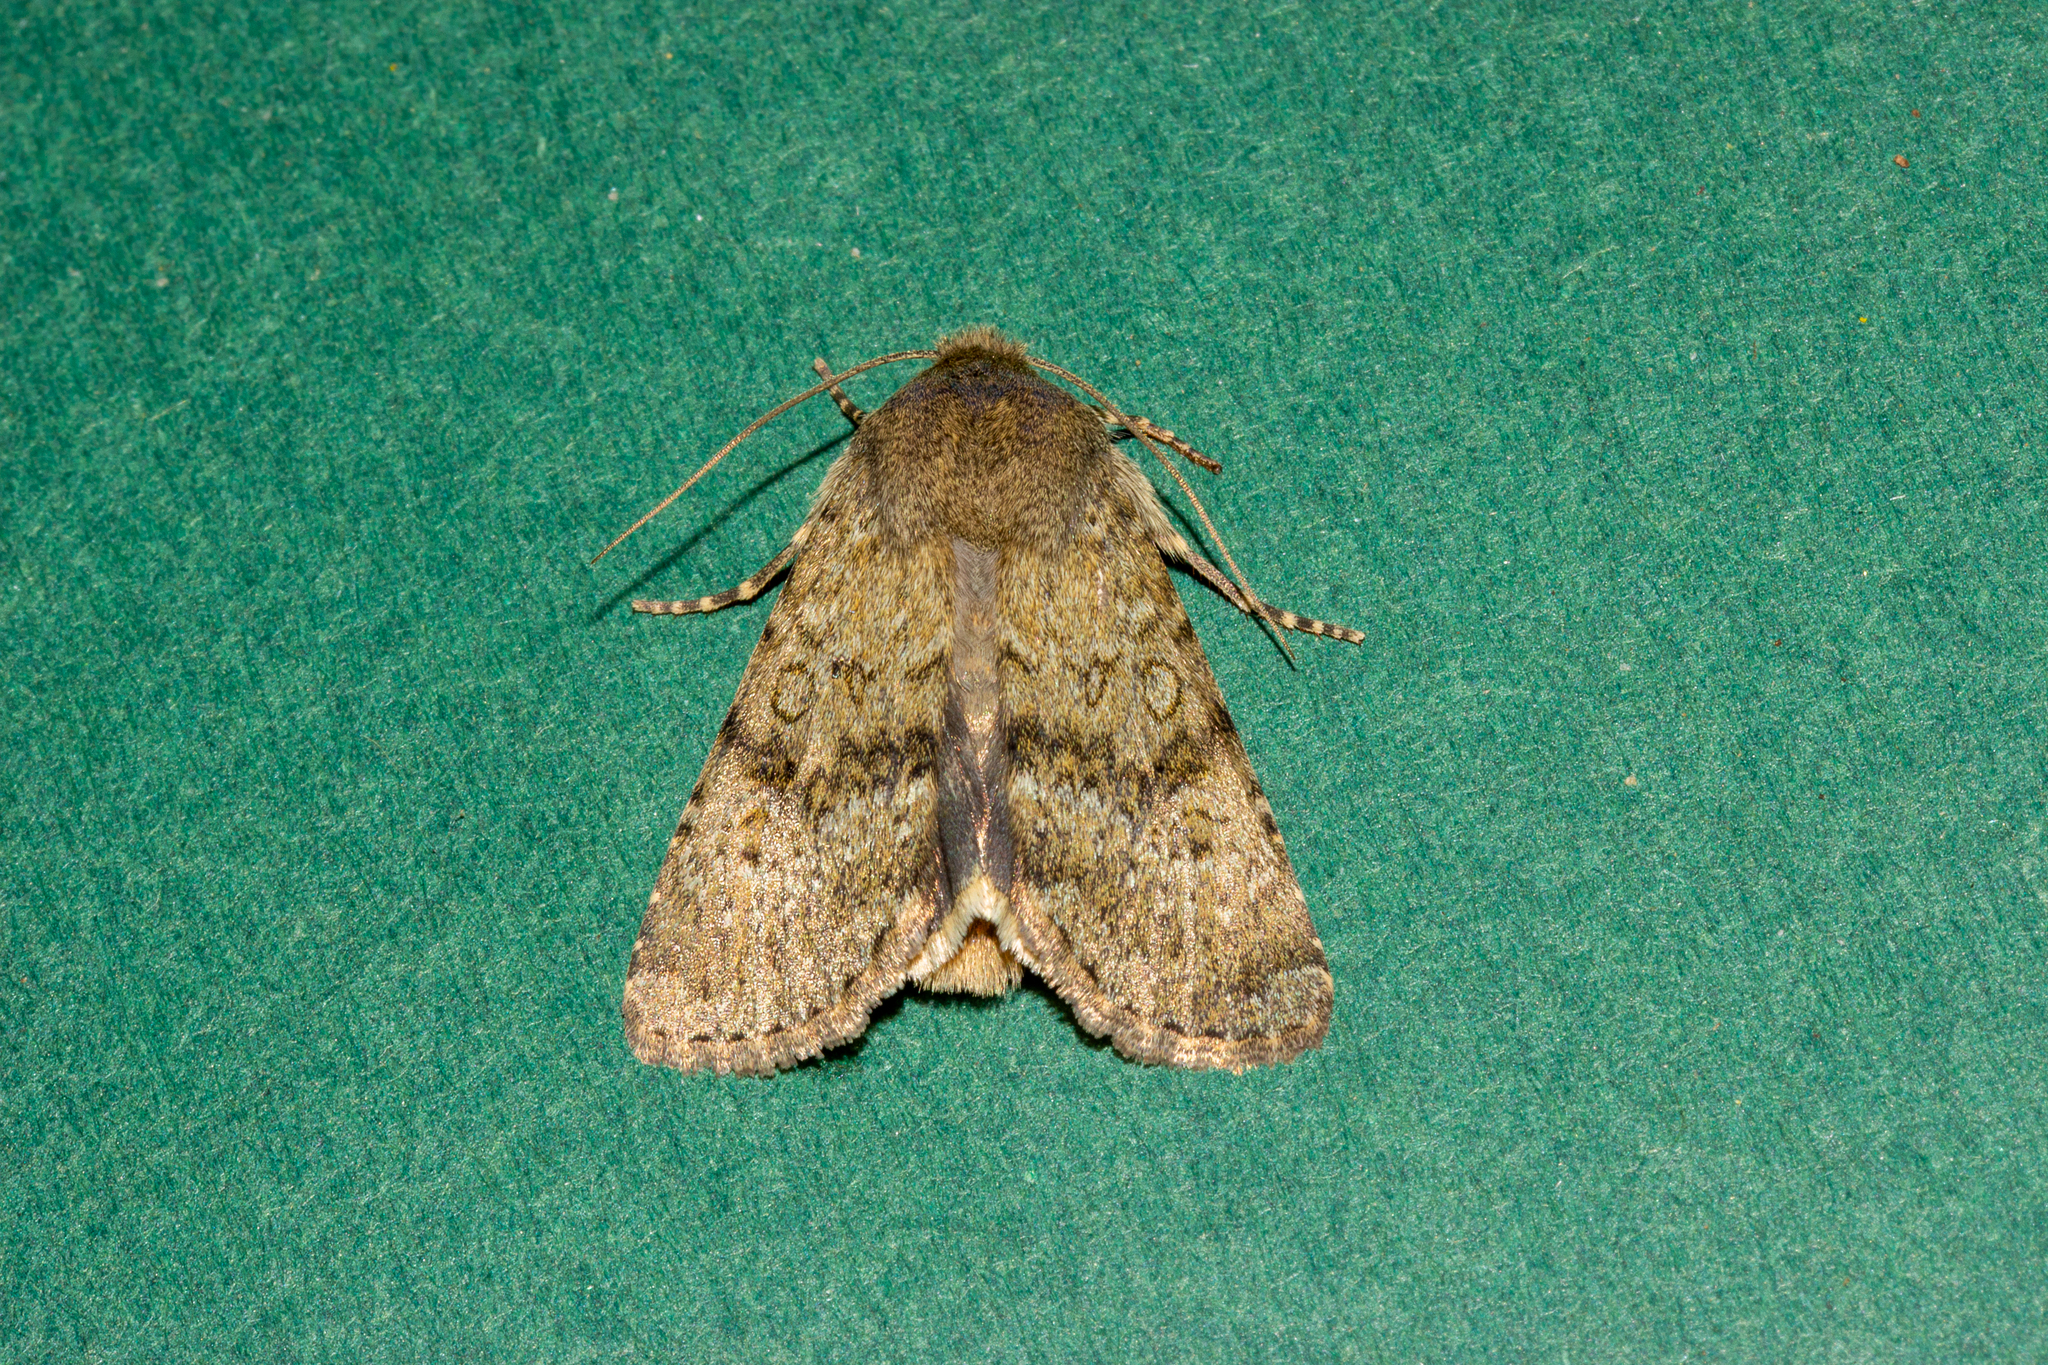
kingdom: Animalia
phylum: Arthropoda
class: Insecta
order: Lepidoptera
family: Noctuidae
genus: Ichneutica
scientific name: Ichneutica moderata
